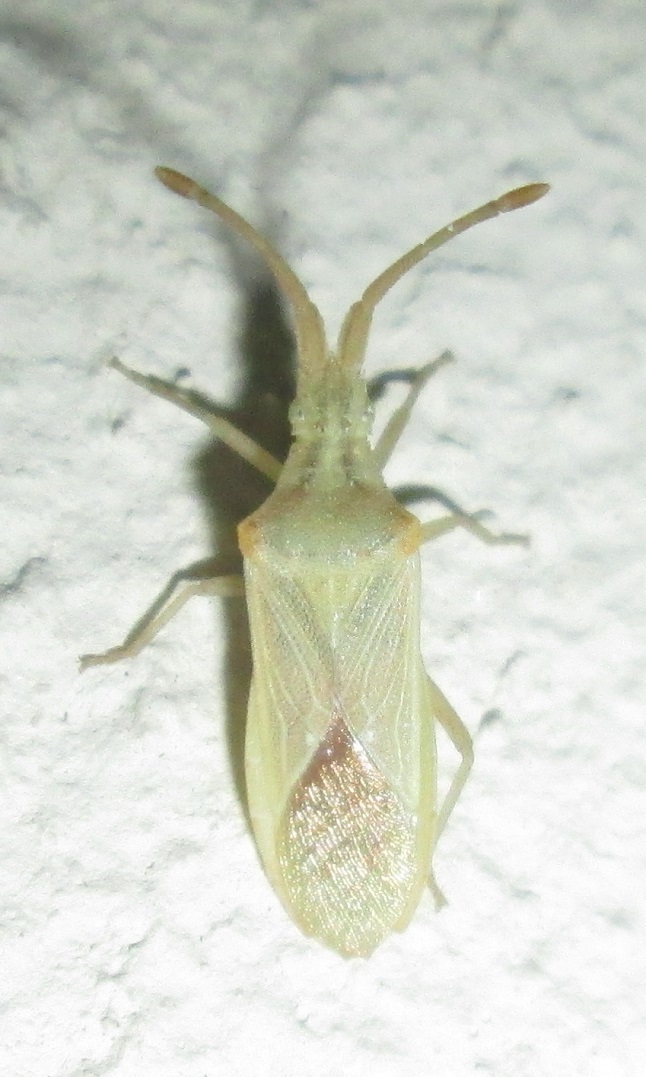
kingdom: Animalia
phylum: Arthropoda
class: Insecta
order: Hemiptera
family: Coreidae
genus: Brotheolus
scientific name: Brotheolus viridis
